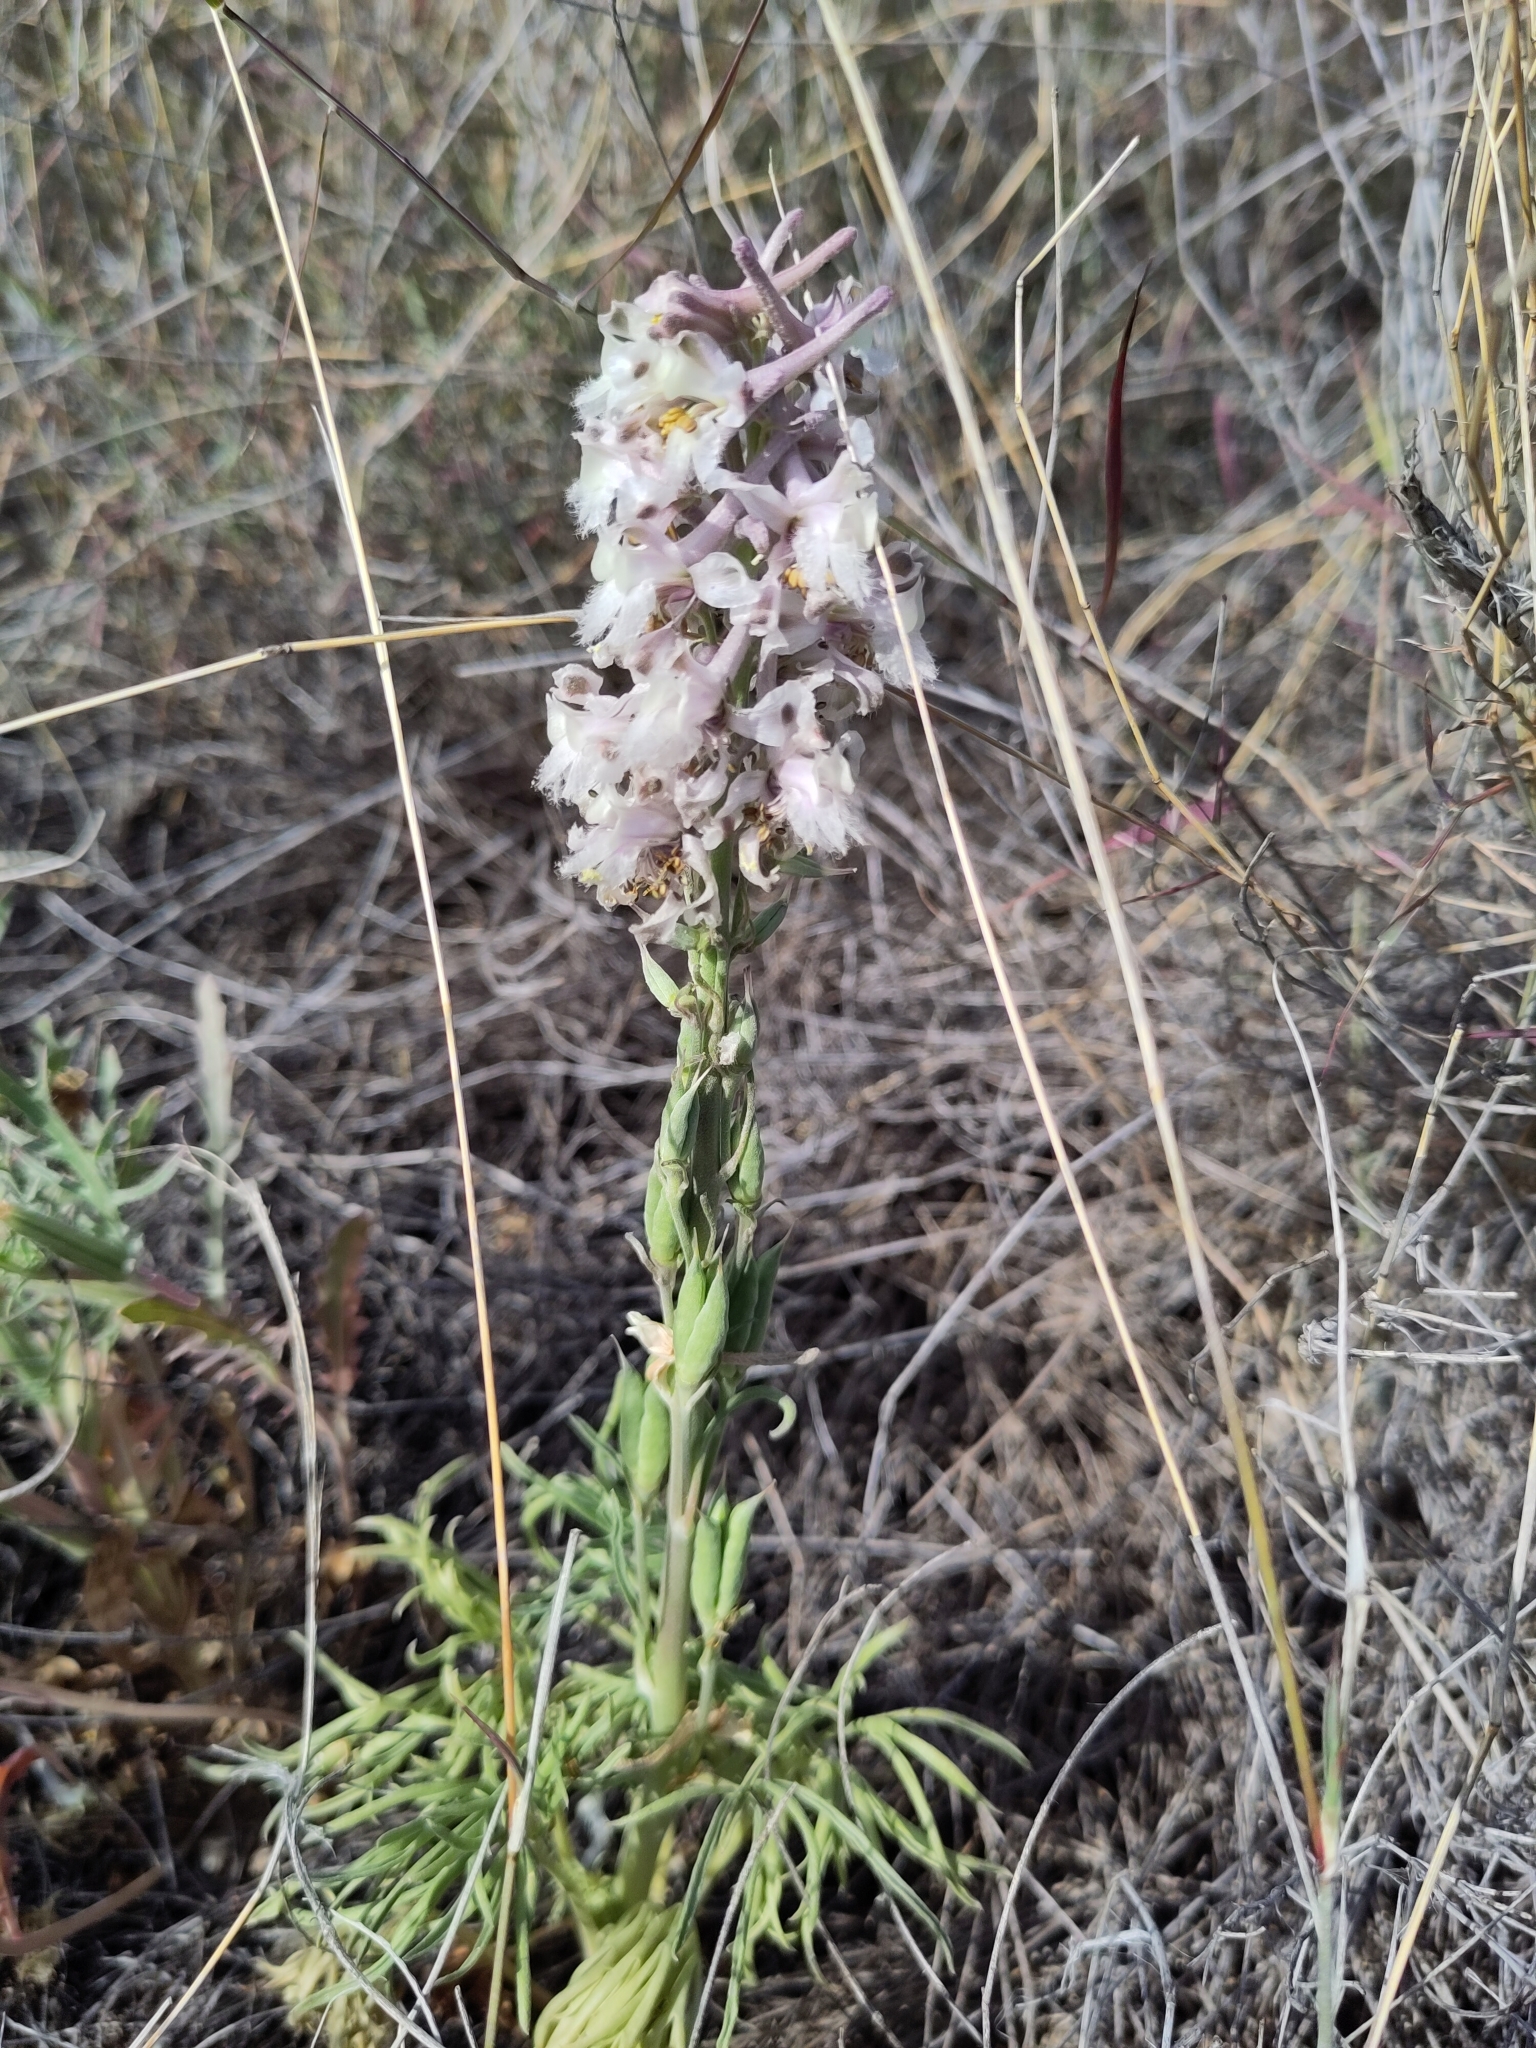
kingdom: Plantae
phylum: Tracheophyta
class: Magnoliopsida
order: Ranunculales
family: Ranunculaceae
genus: Delphinium
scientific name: Delphinium wootonii
